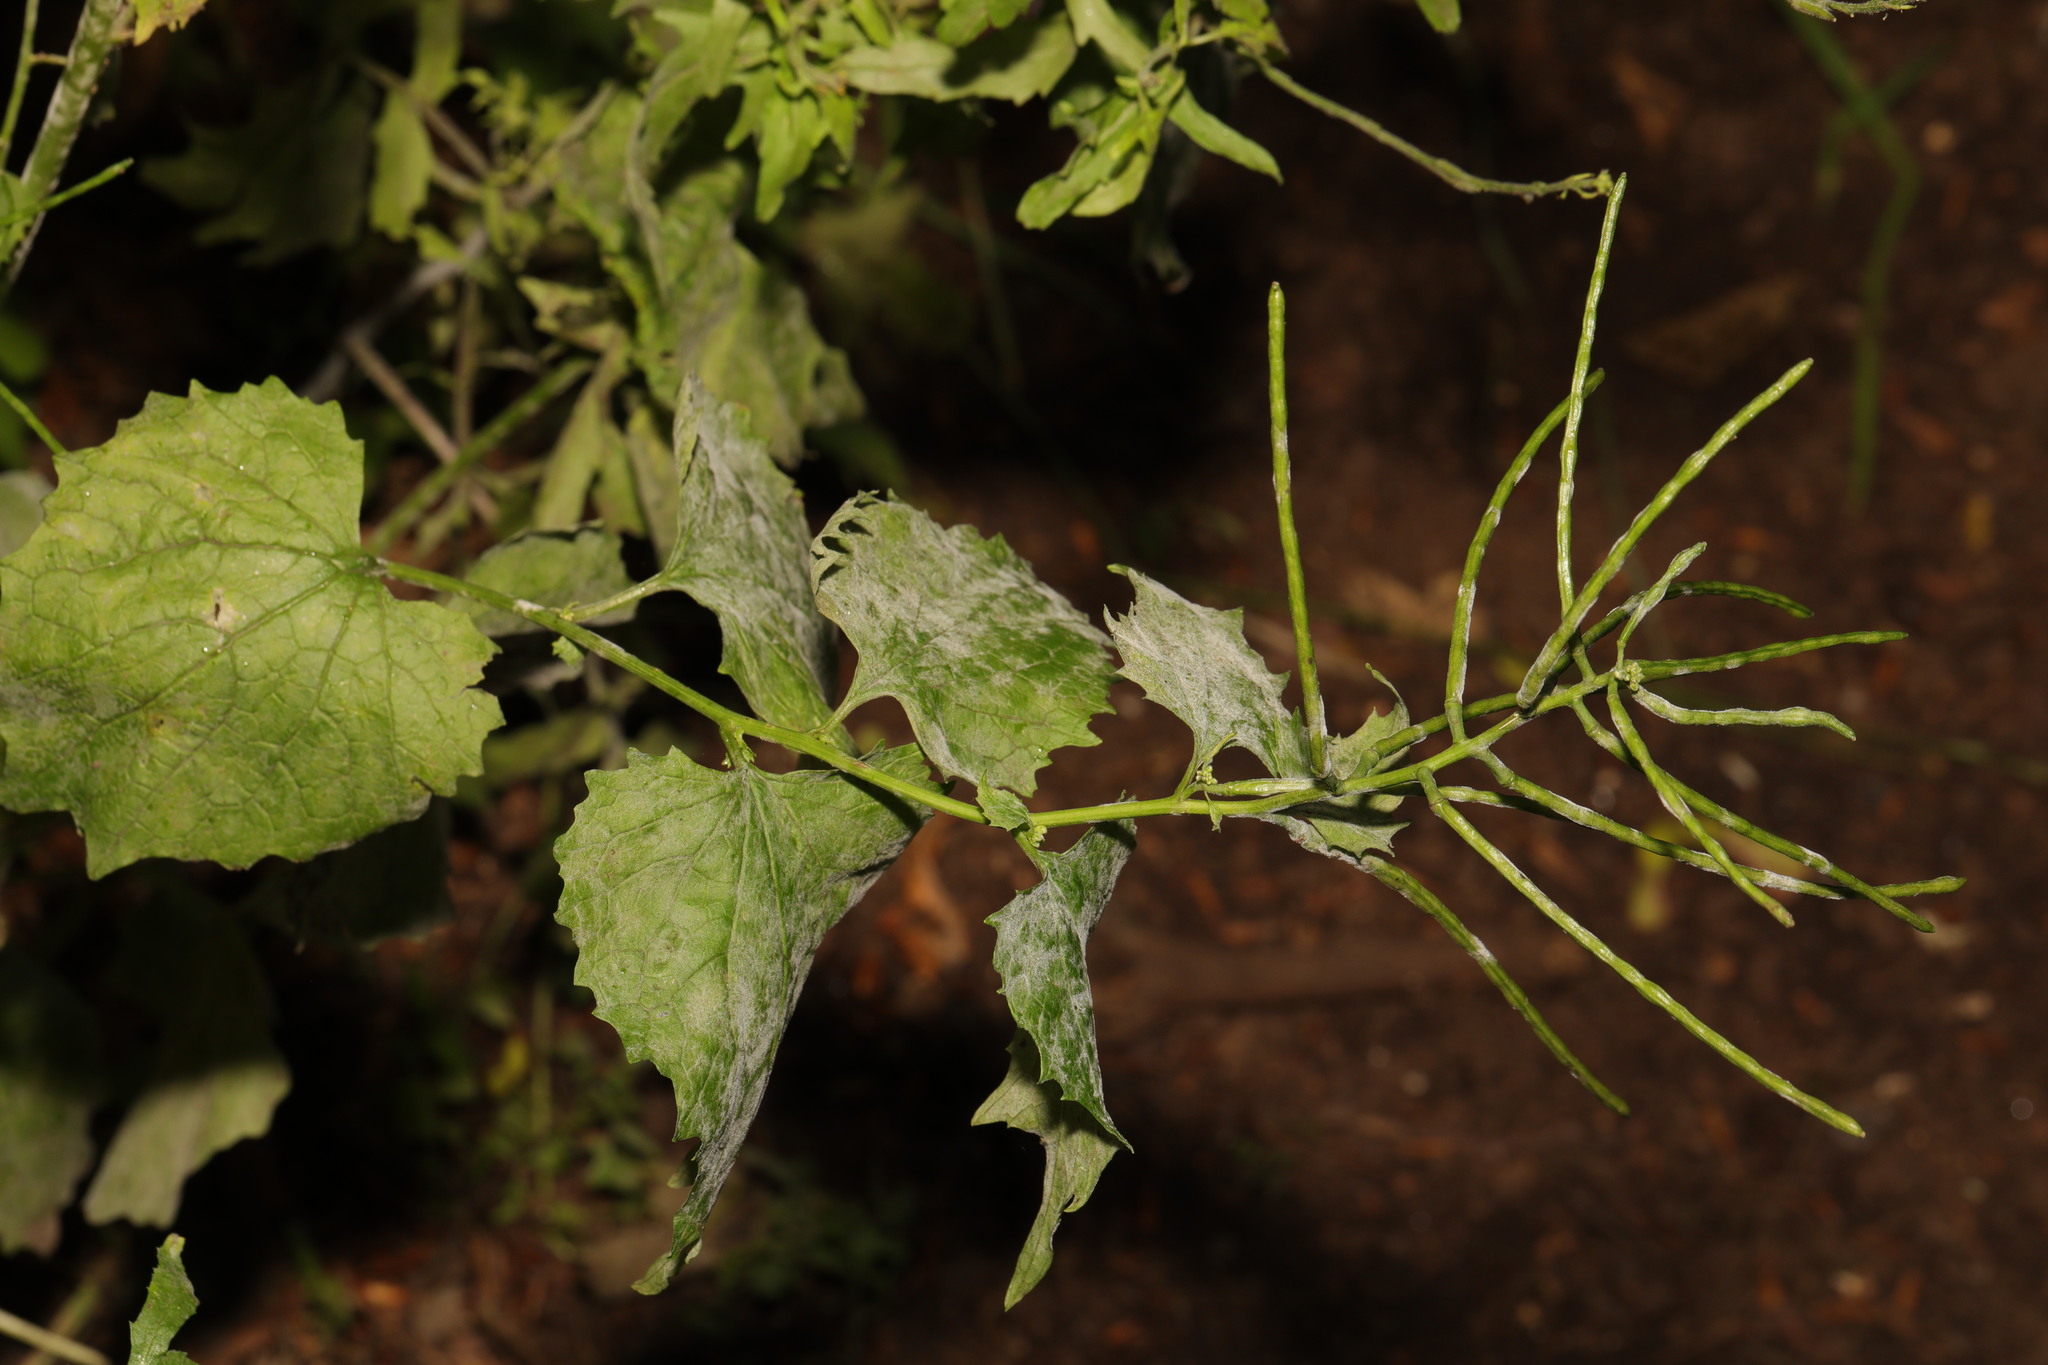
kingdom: Plantae
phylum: Tracheophyta
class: Magnoliopsida
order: Brassicales
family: Brassicaceae
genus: Alliaria
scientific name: Alliaria petiolata
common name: Garlic mustard
